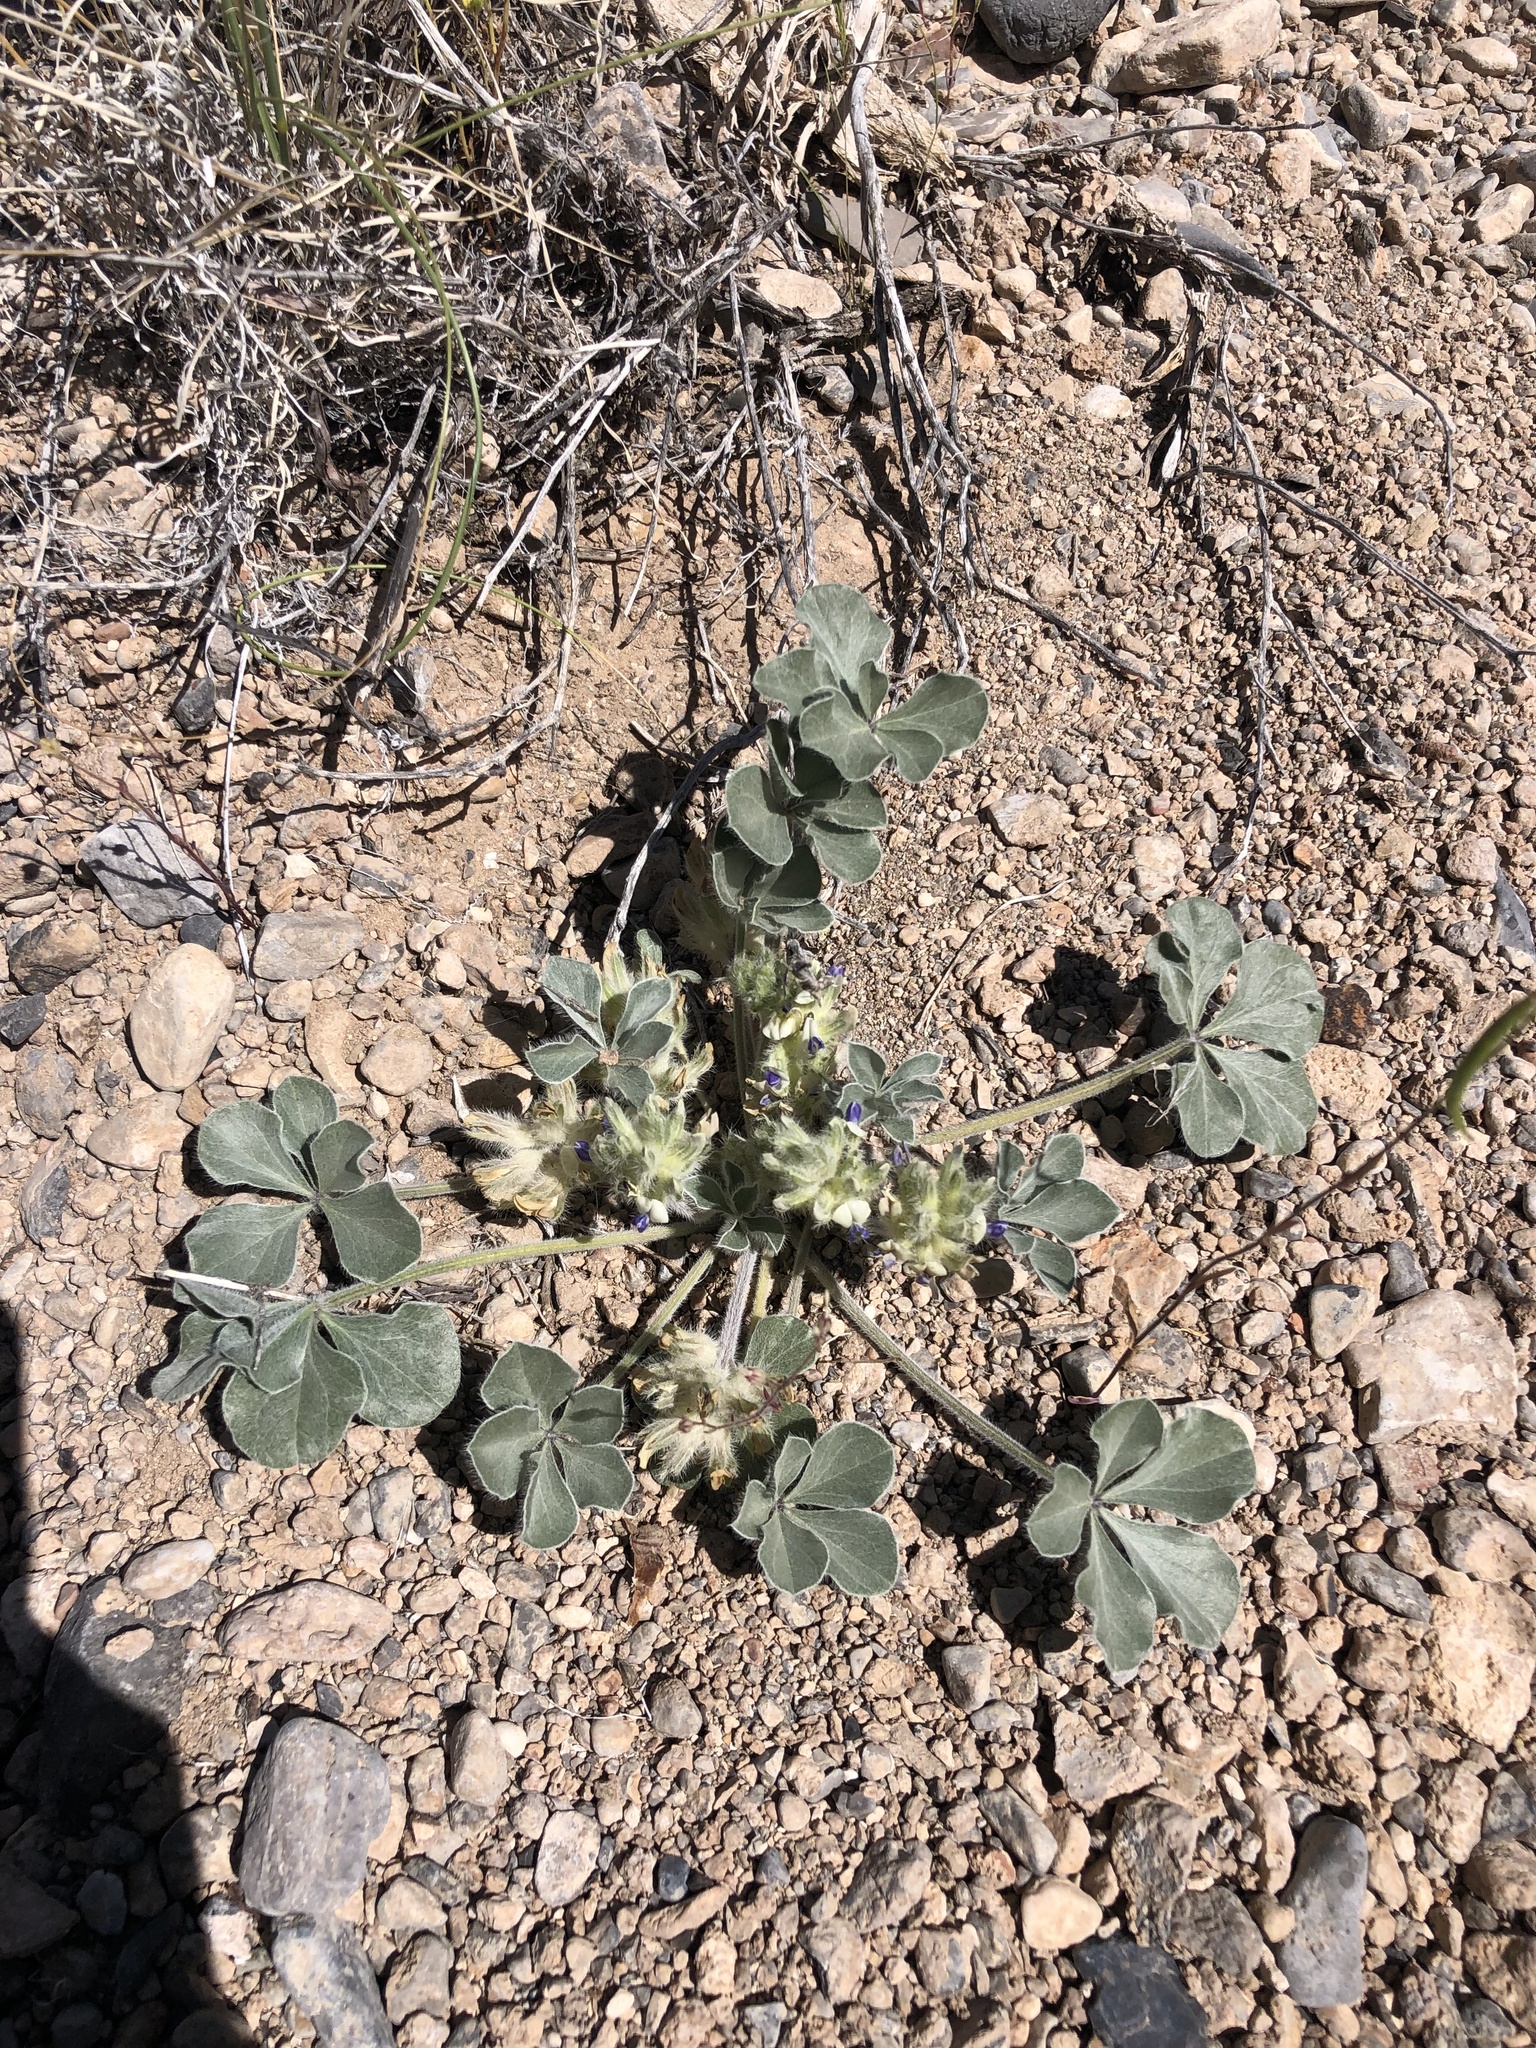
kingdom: Plantae
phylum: Tracheophyta
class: Magnoliopsida
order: Fabales
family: Fabaceae
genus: Pediomelum
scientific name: Pediomelum castoreum
